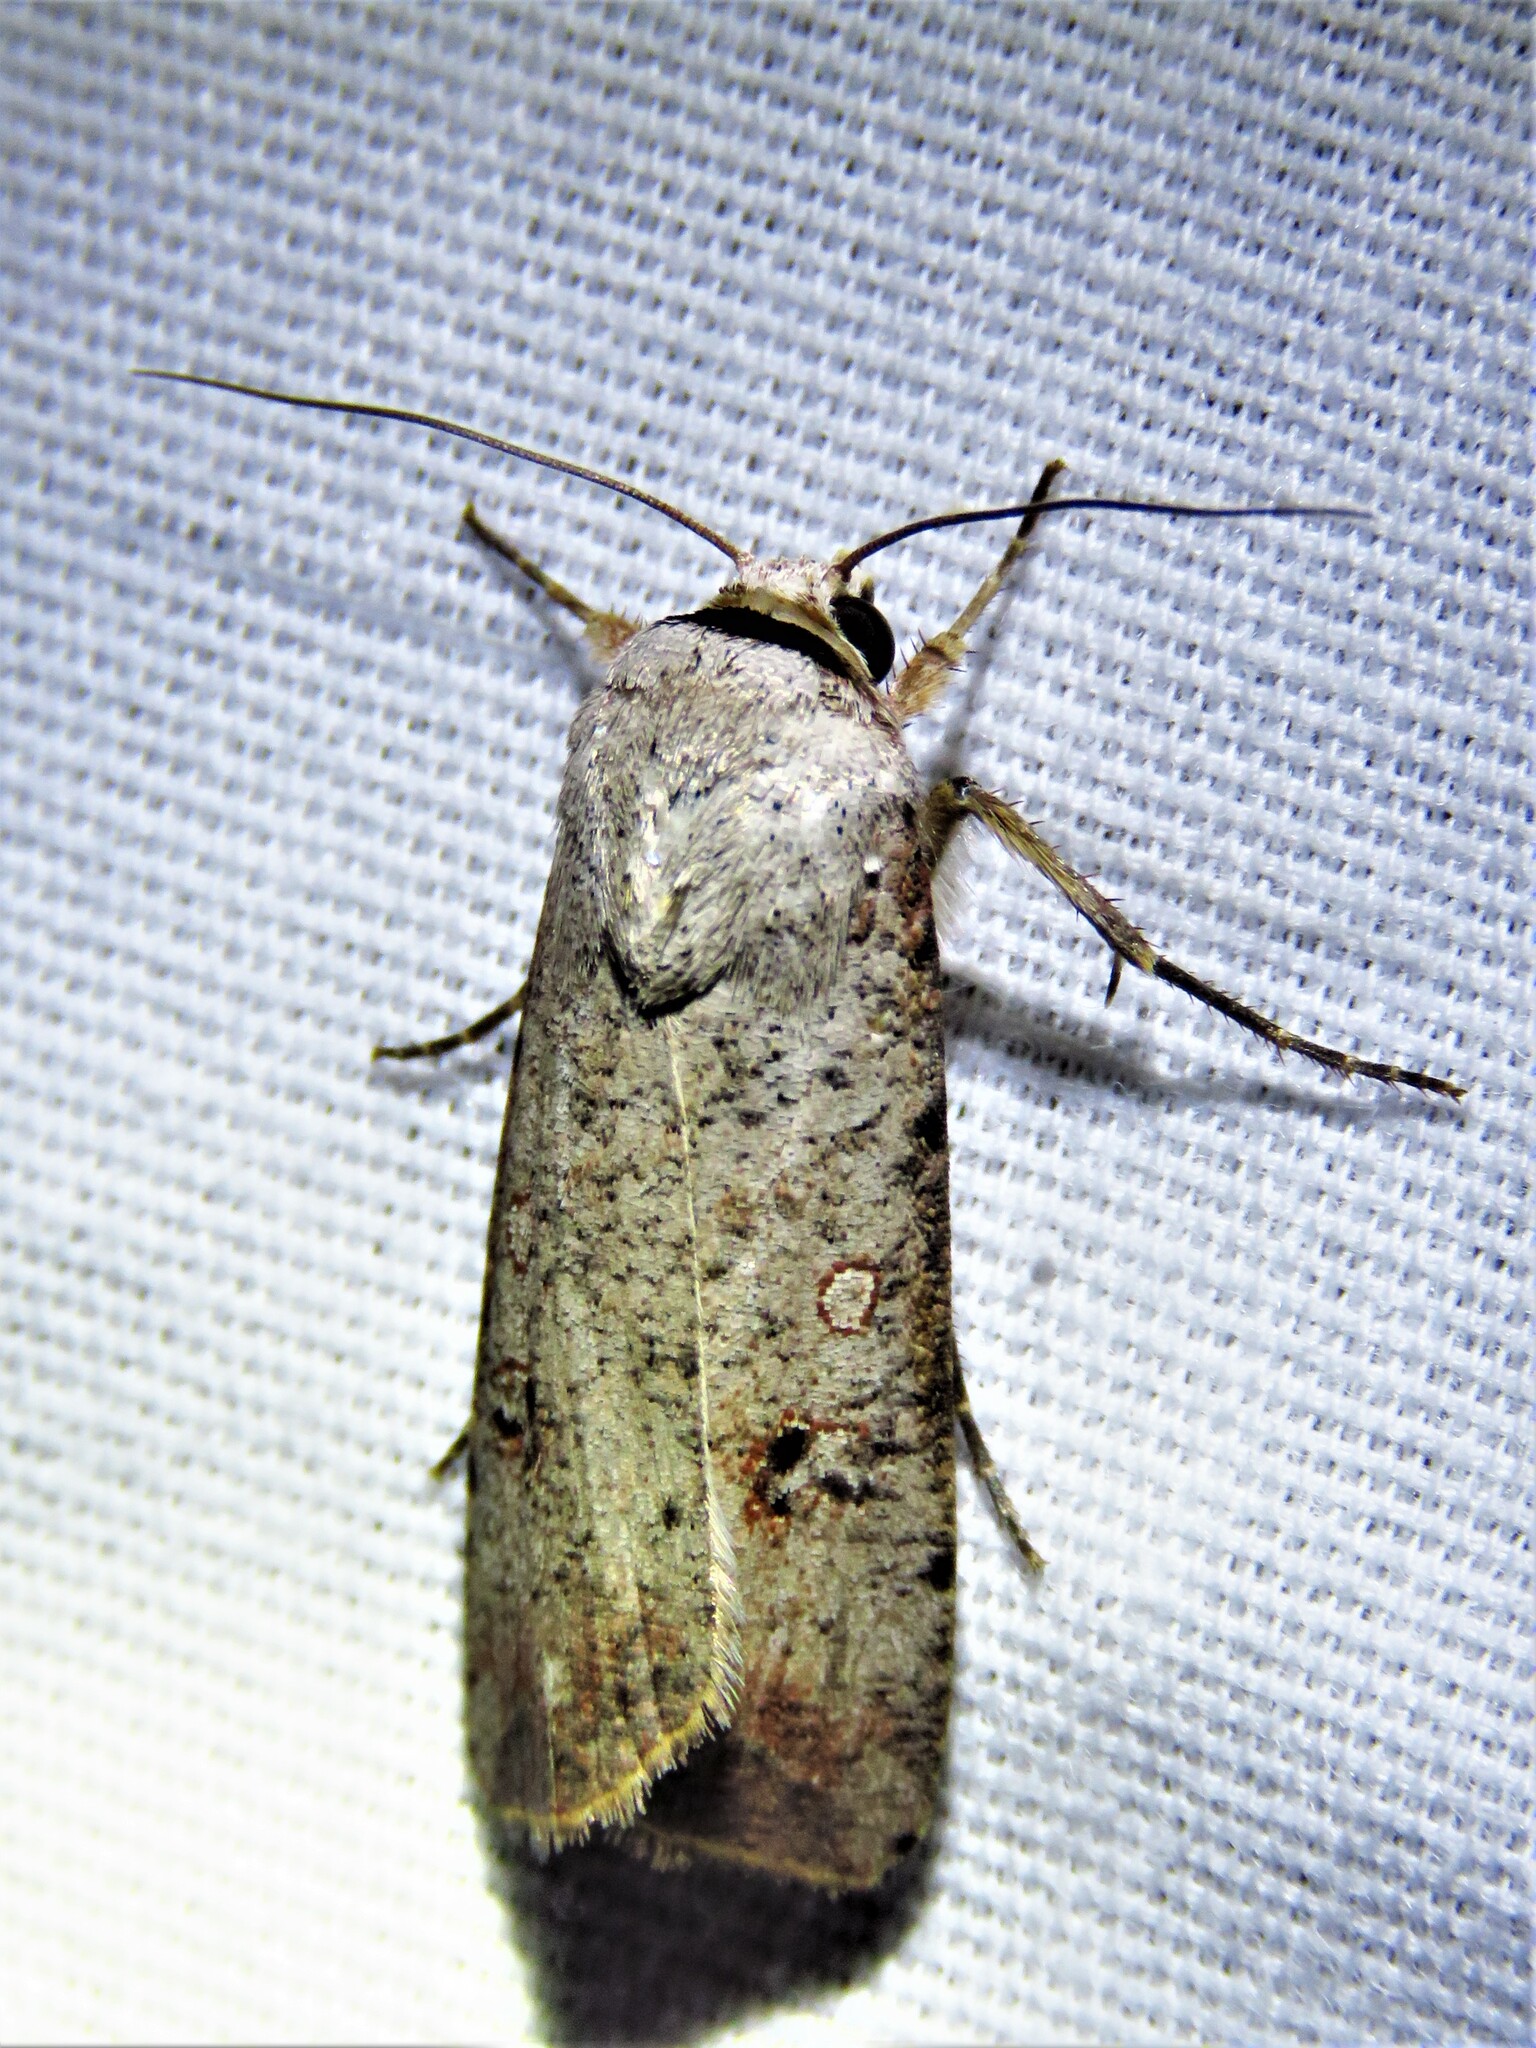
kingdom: Animalia
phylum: Arthropoda
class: Insecta
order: Lepidoptera
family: Noctuidae
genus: Anicla
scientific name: Anicla infecta
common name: Green cutworm
